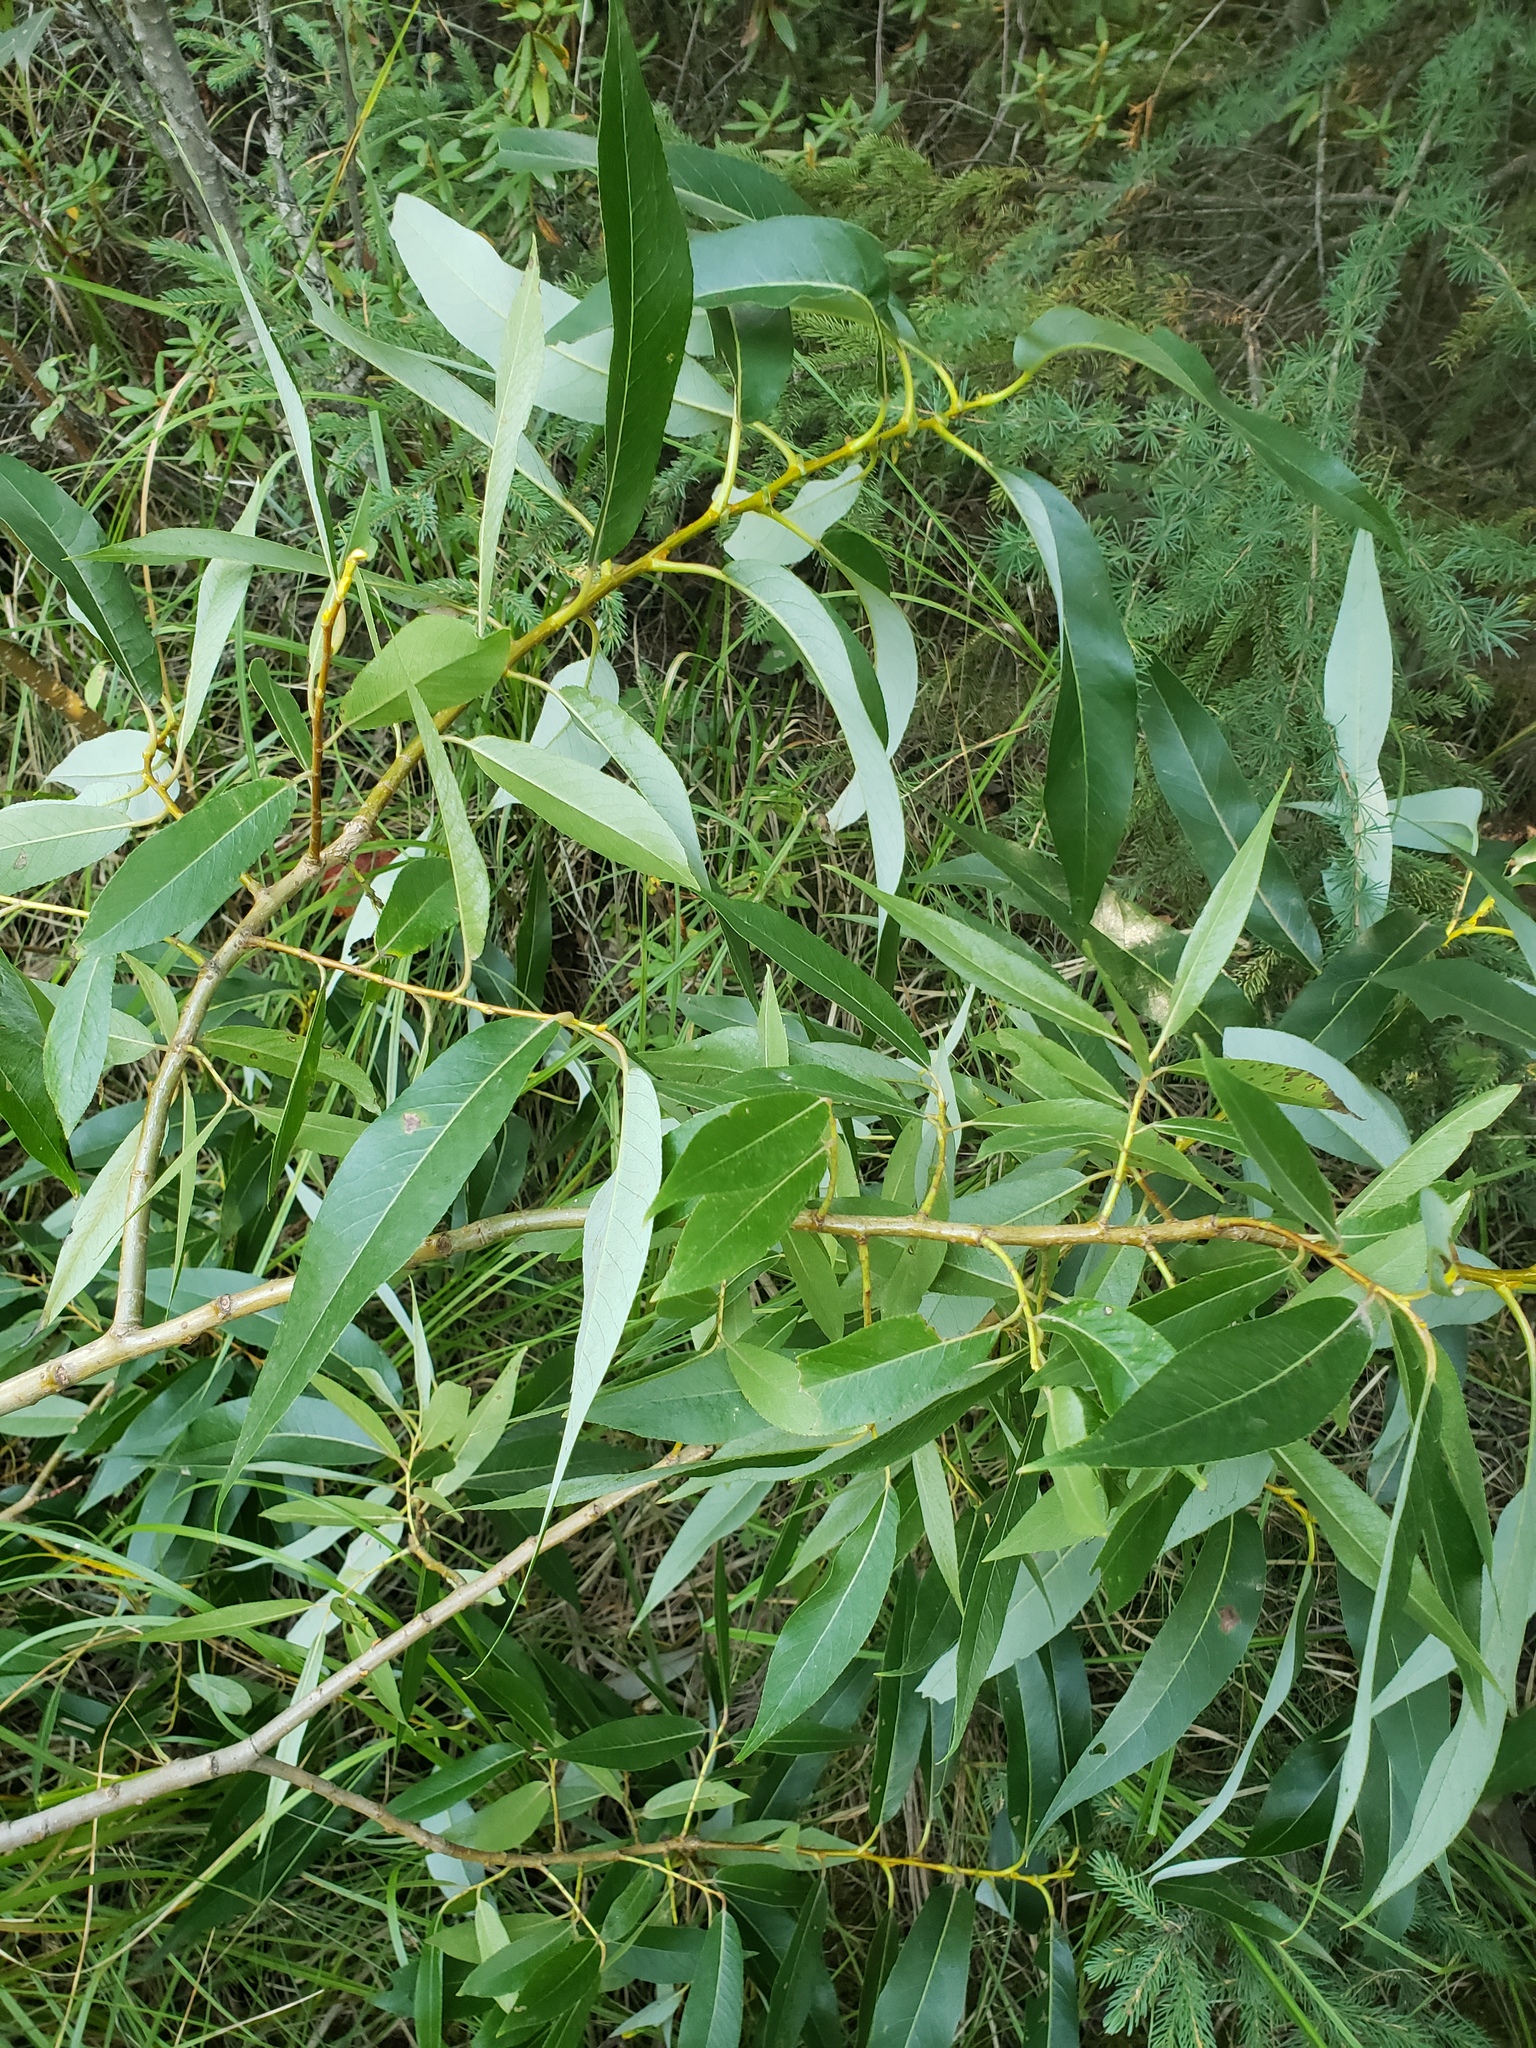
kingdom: Plantae
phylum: Tracheophyta
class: Magnoliopsida
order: Malpighiales
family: Salicaceae
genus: Salix
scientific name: Salix lucida
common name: Shining willow
